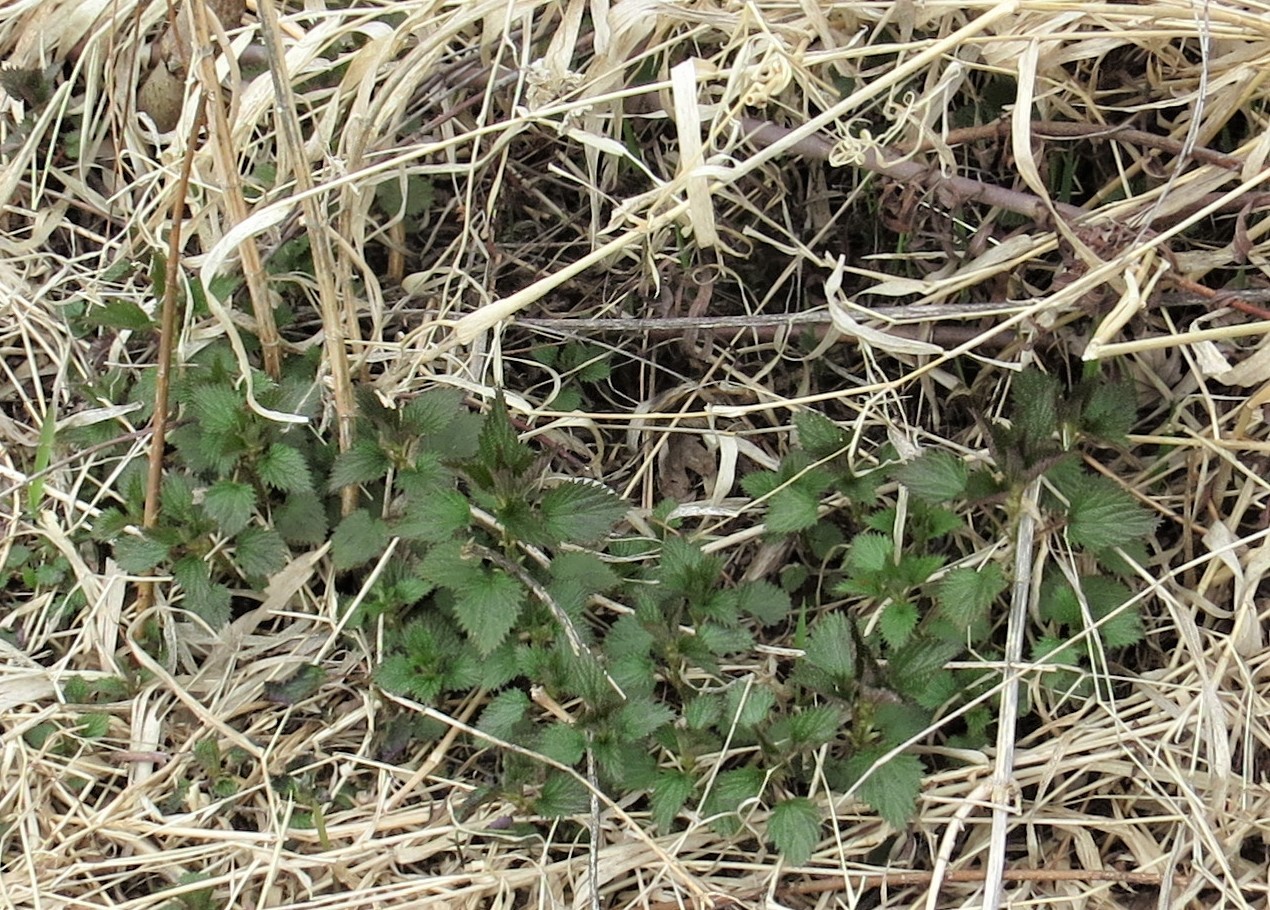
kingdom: Plantae
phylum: Tracheophyta
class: Magnoliopsida
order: Rosales
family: Urticaceae
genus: Urtica
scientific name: Urtica dioica
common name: Common nettle
